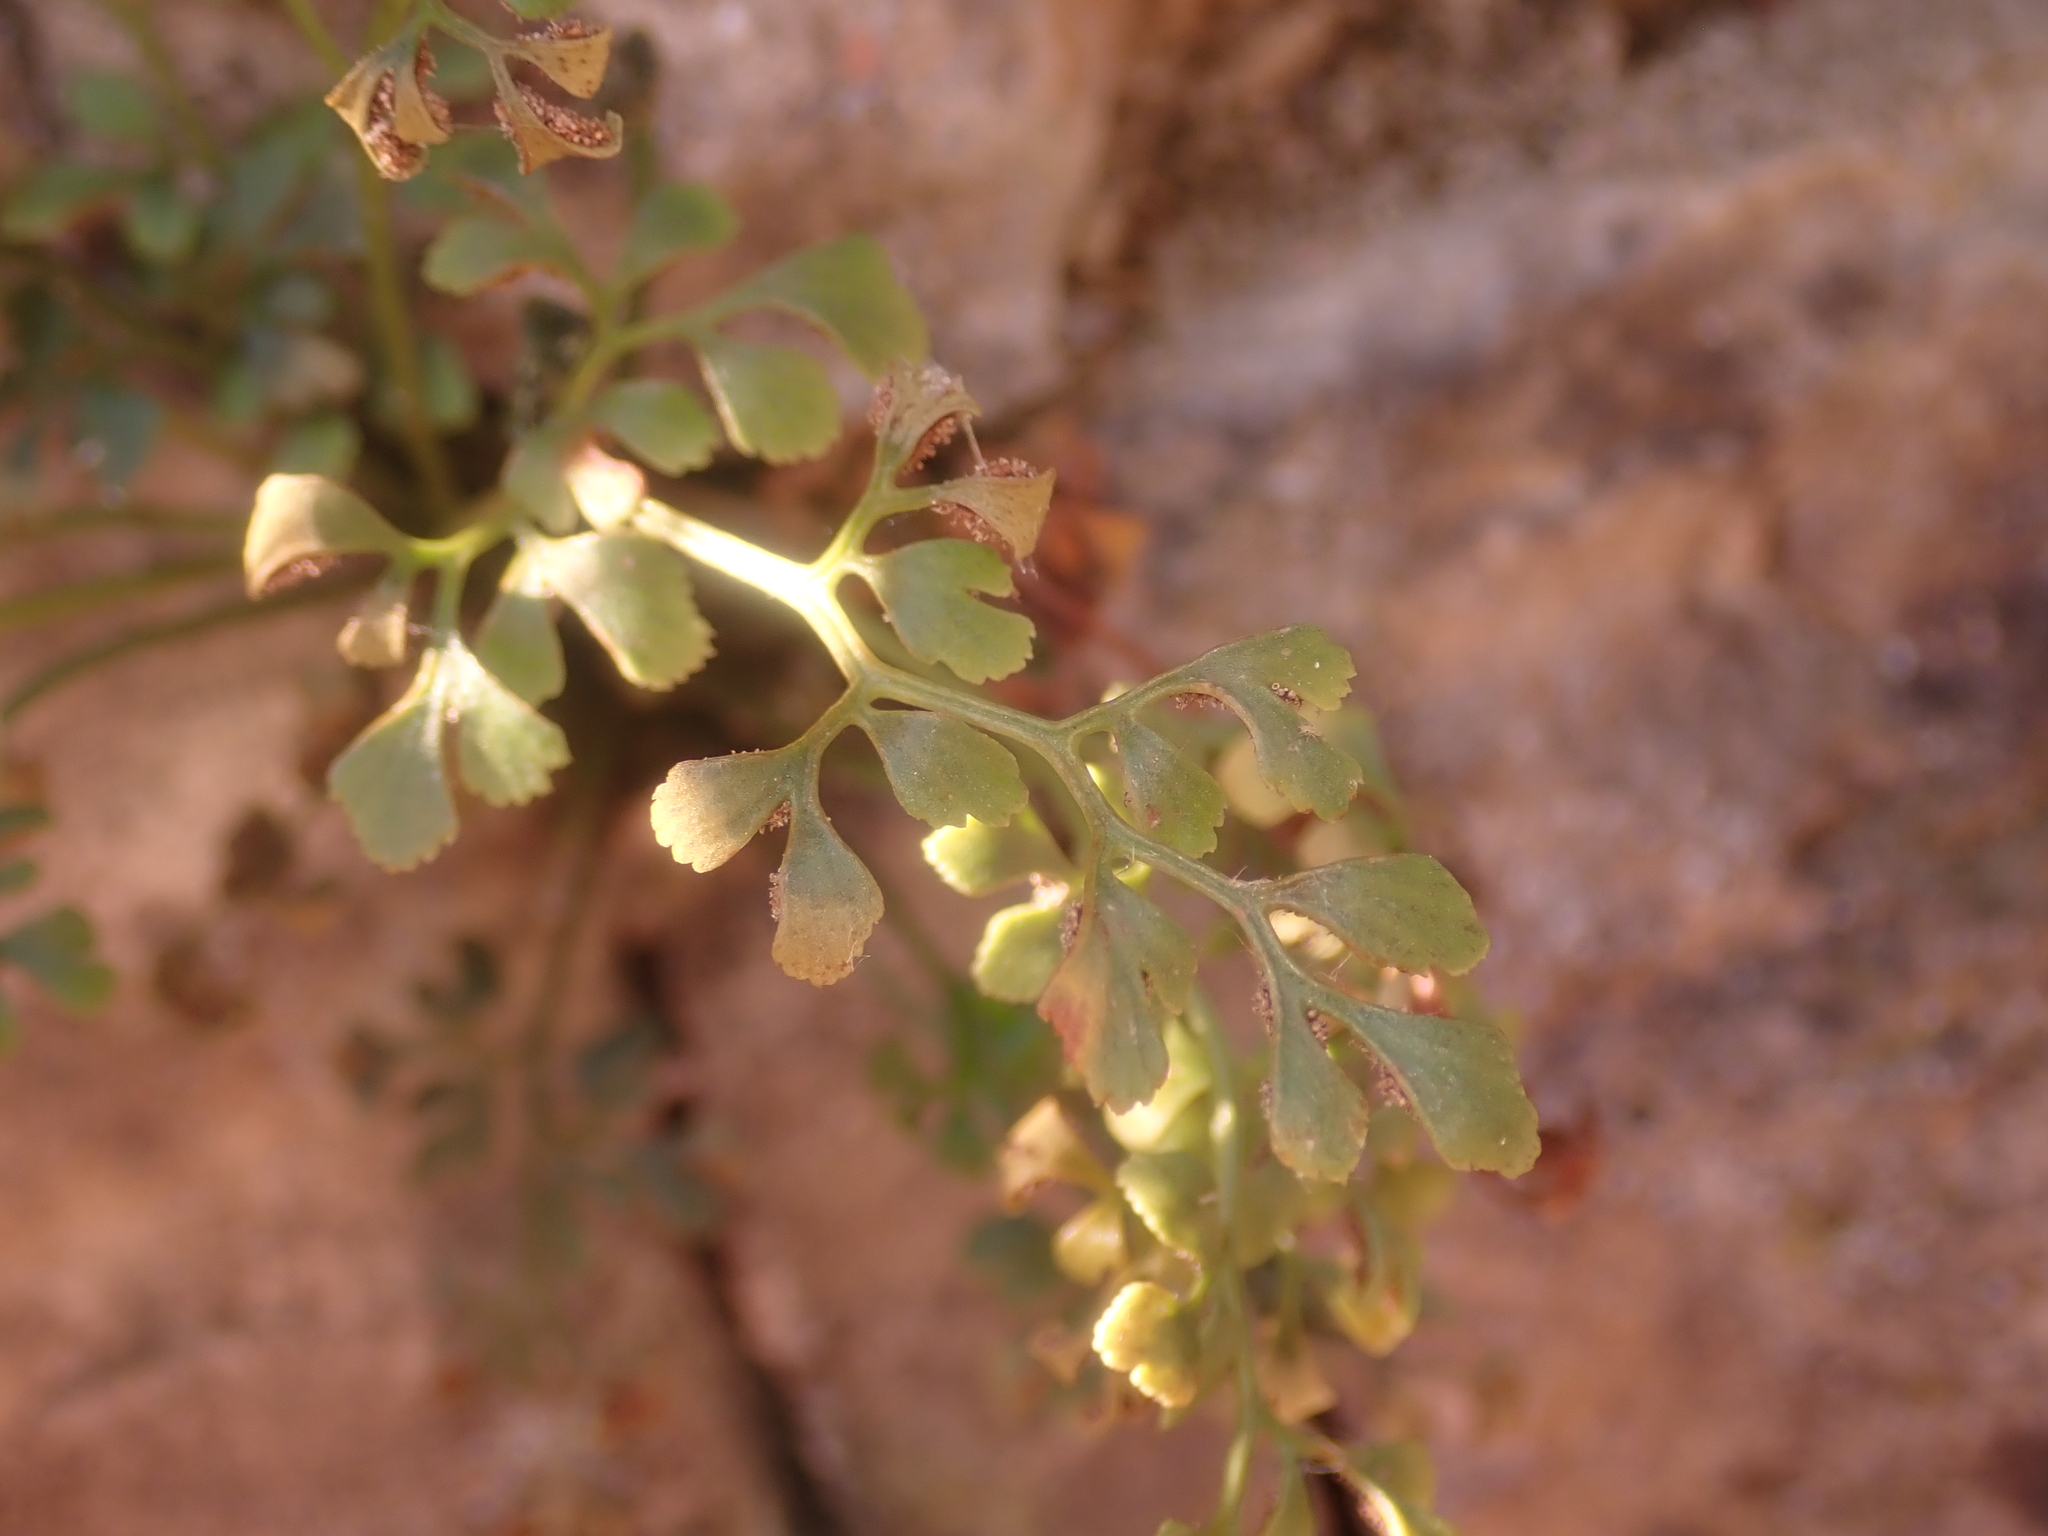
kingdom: Plantae
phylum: Tracheophyta
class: Polypodiopsida
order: Polypodiales
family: Aspleniaceae
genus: Asplenium
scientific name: Asplenium ruta-muraria
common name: Wall-rue
